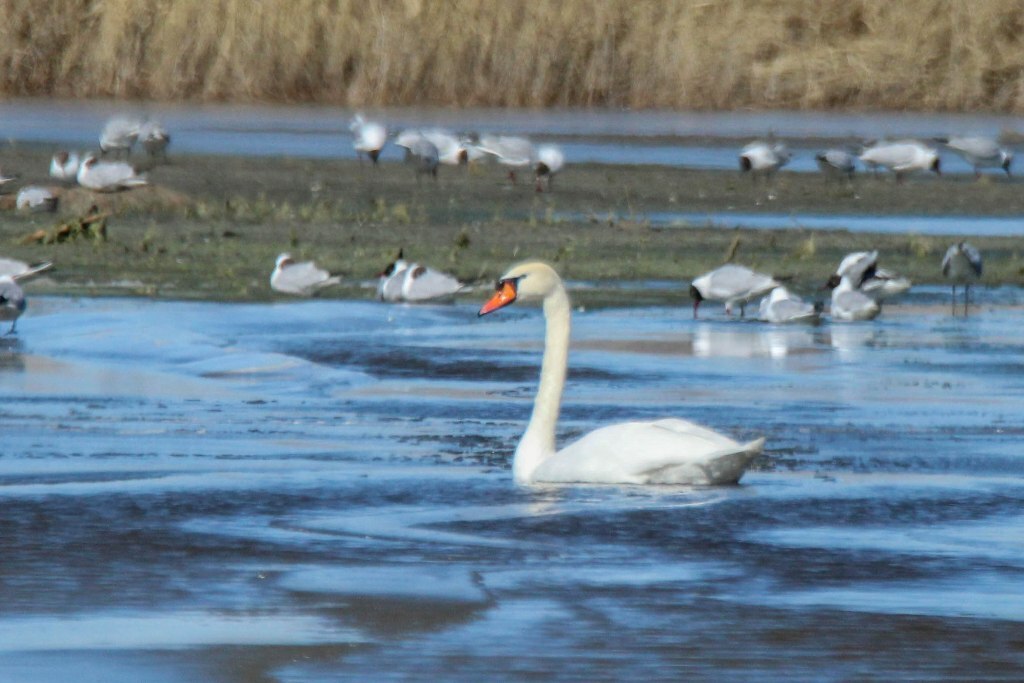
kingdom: Animalia
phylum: Chordata
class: Aves
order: Anseriformes
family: Anatidae
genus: Cygnus
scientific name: Cygnus olor
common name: Mute swan
